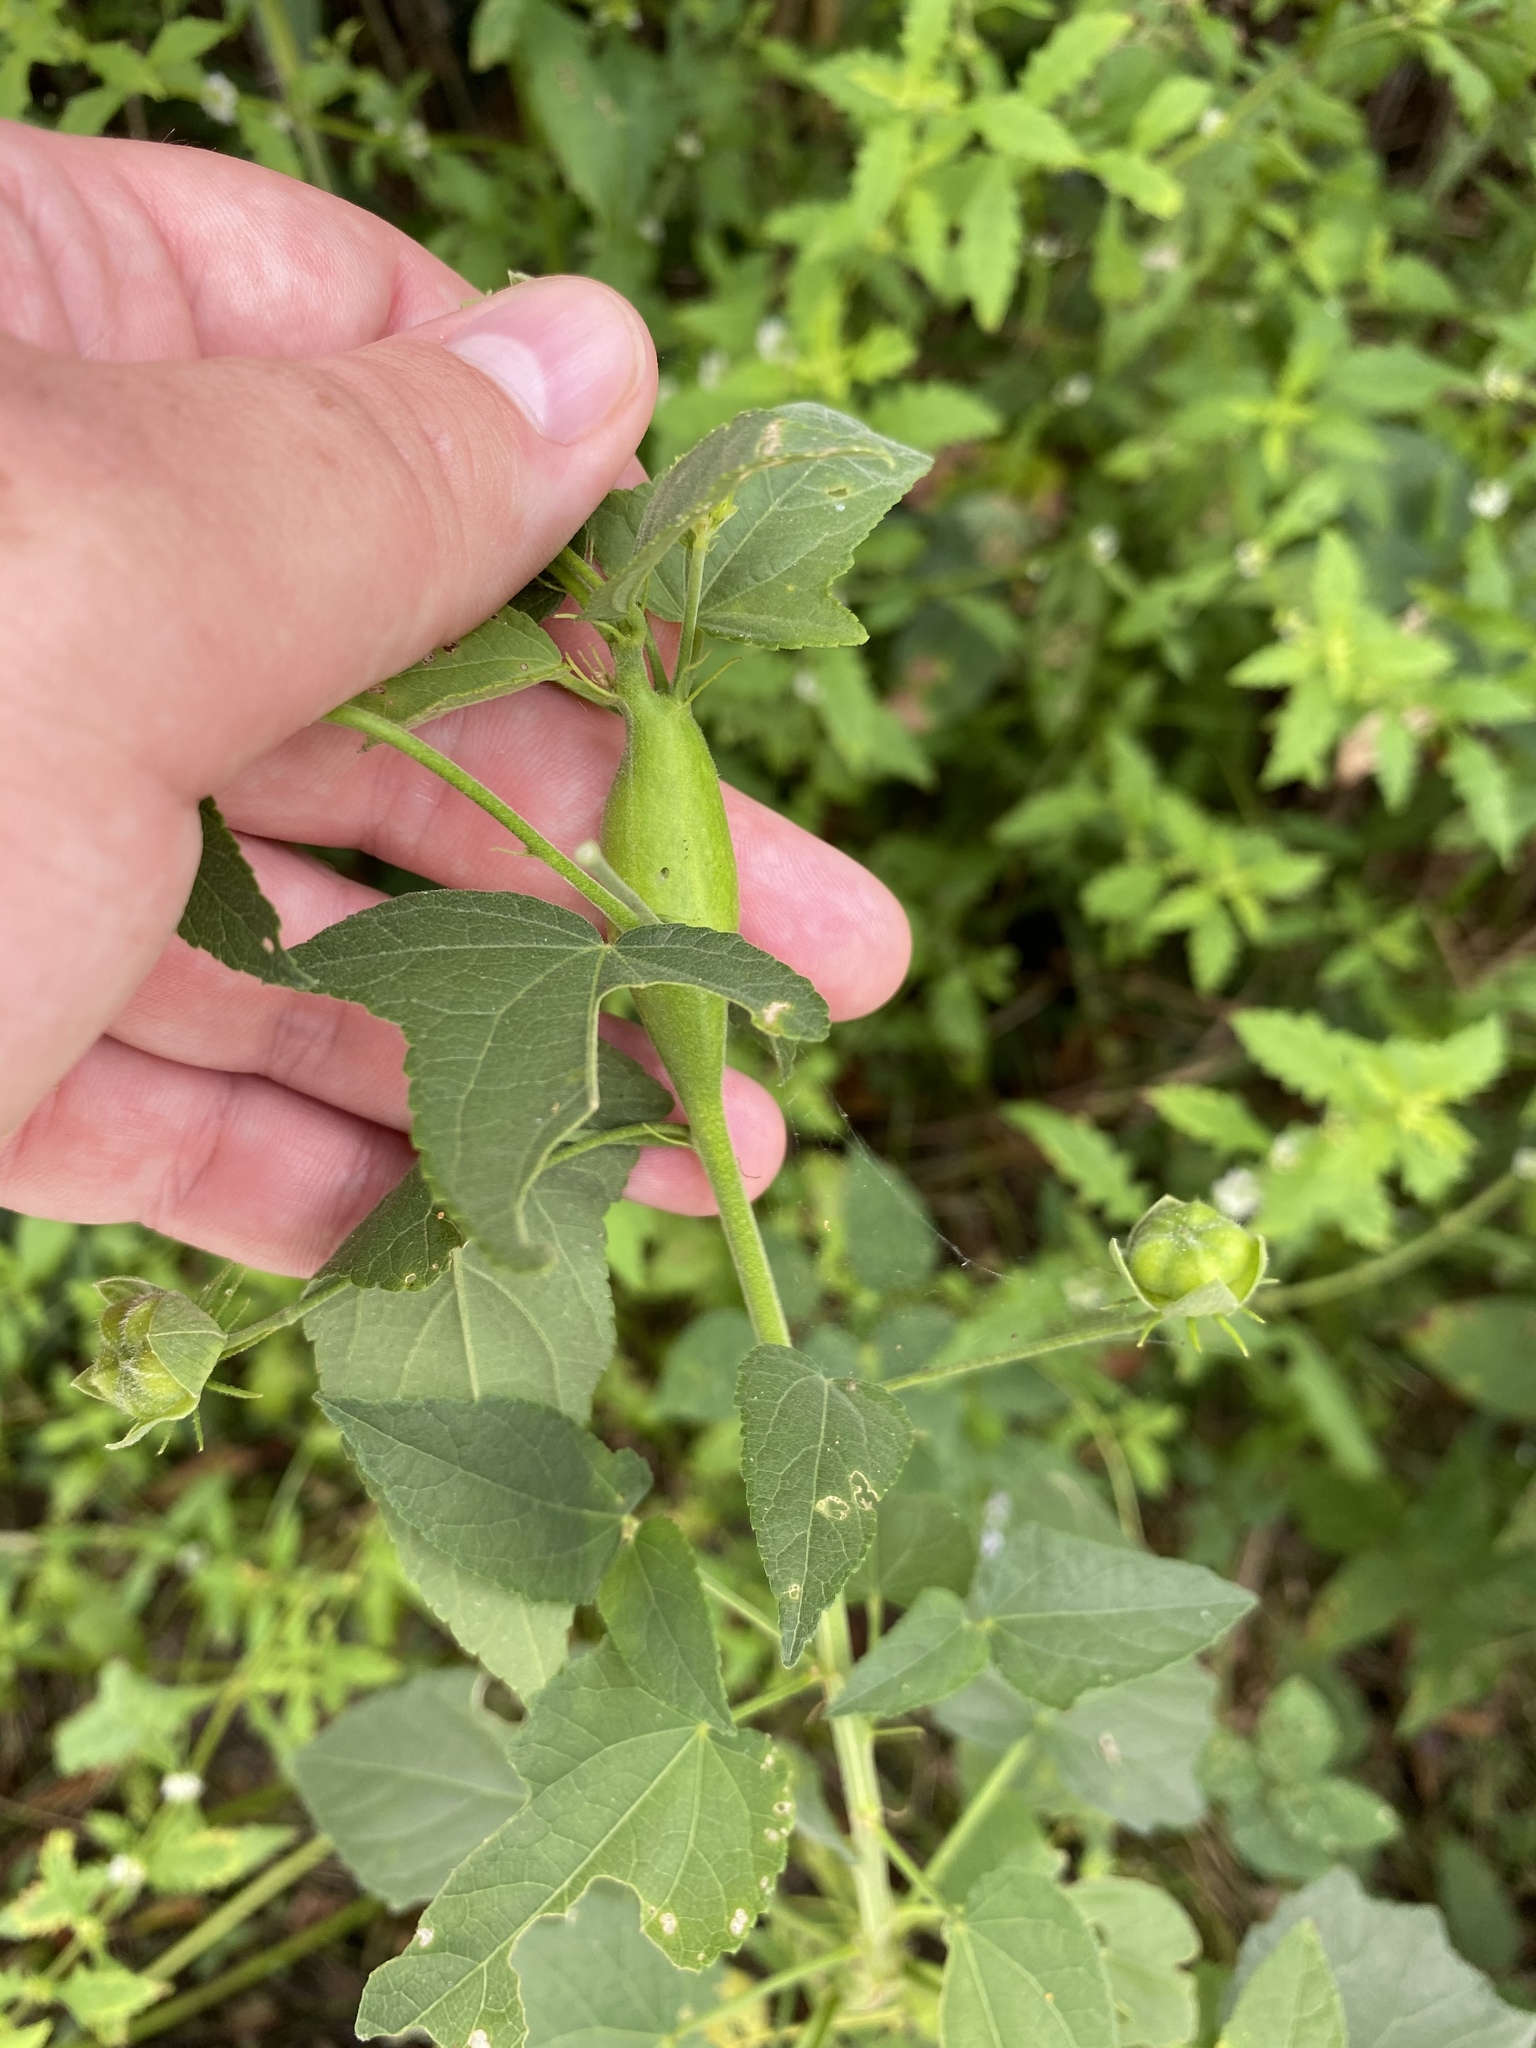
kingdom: Animalia
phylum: Arthropoda
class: Insecta
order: Diptera
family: Cecidomyiidae
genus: Neolasioptera
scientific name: Neolasioptera
